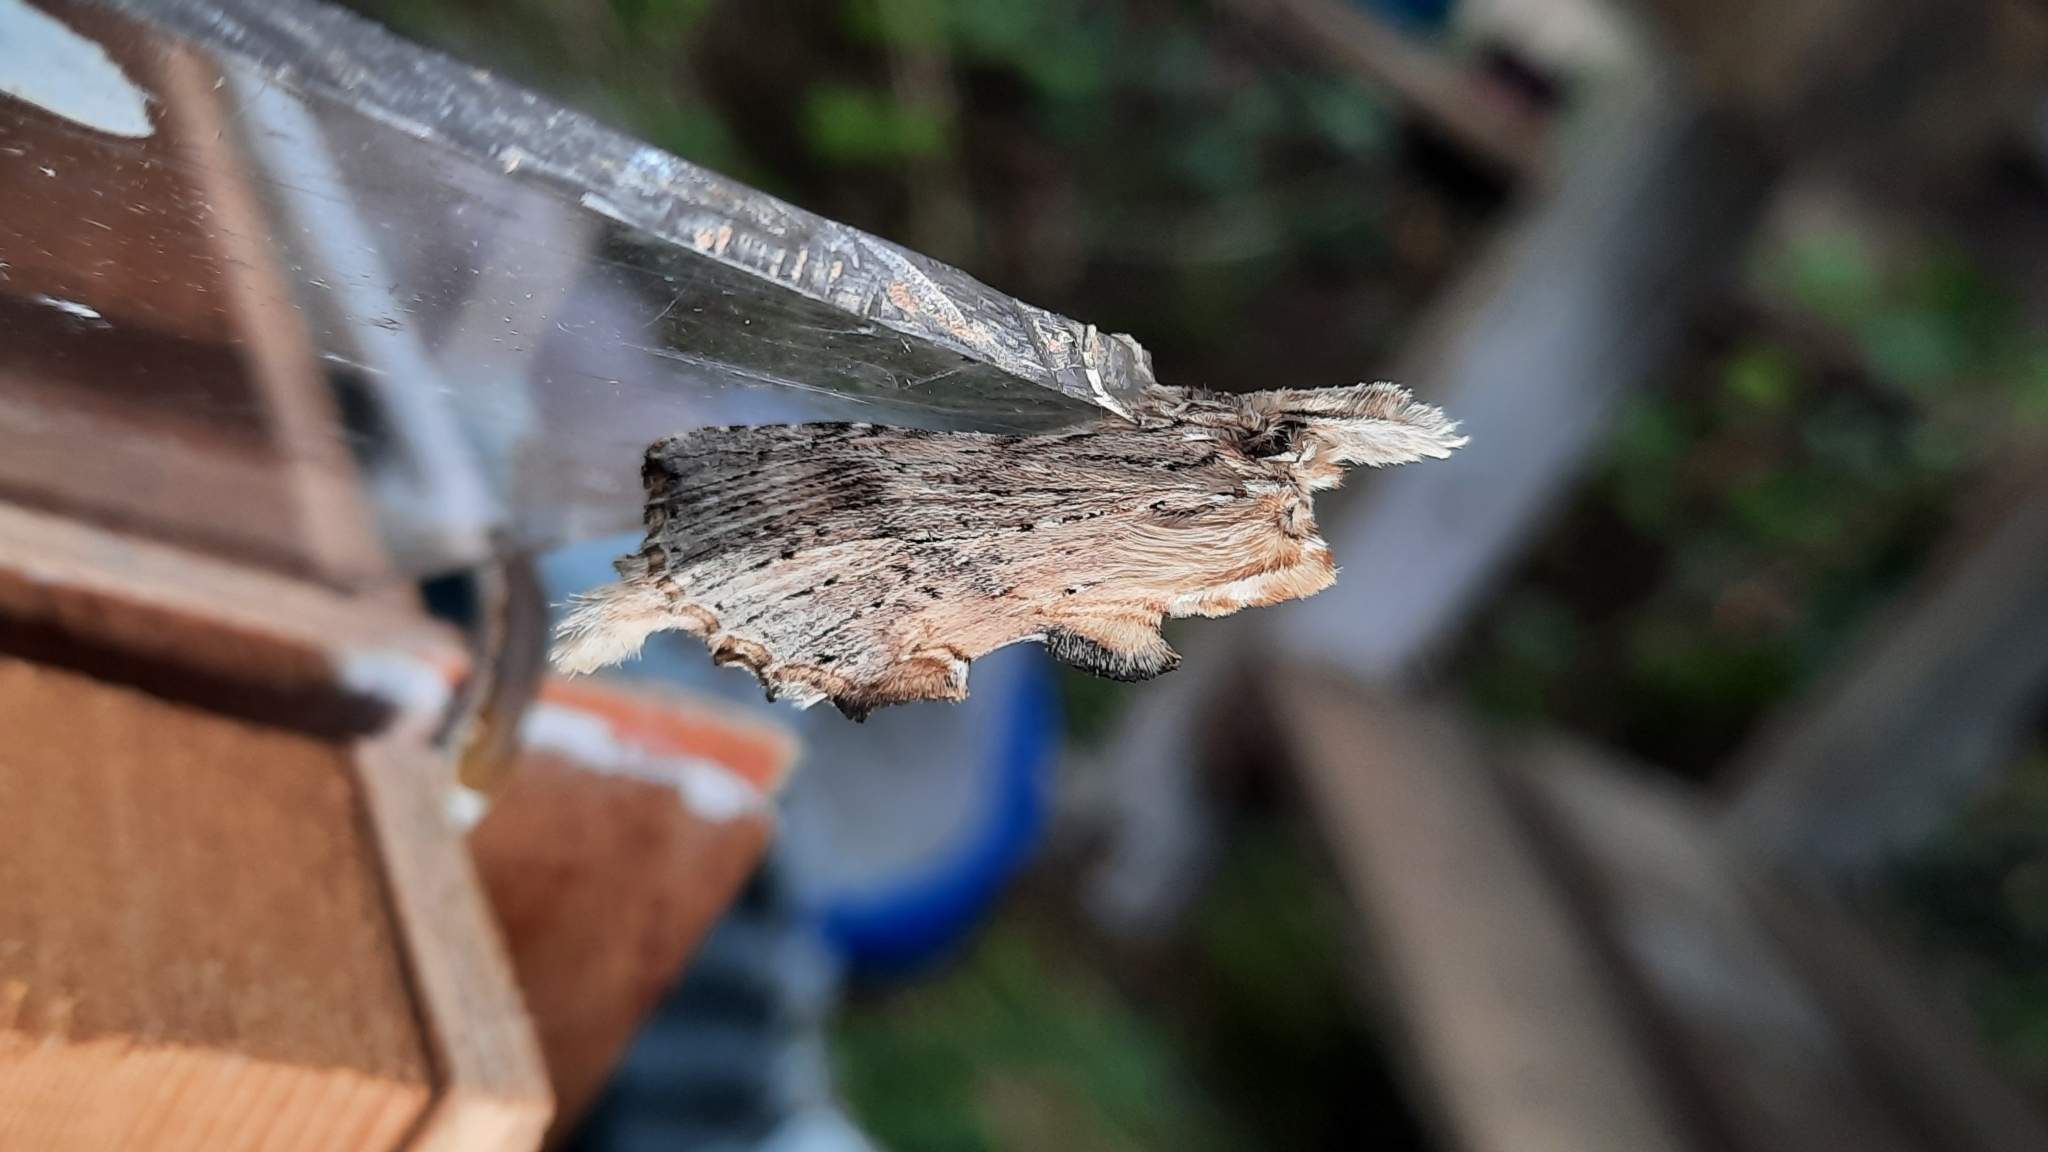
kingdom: Animalia
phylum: Arthropoda
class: Insecta
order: Lepidoptera
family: Notodontidae
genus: Pterostoma
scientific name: Pterostoma palpina
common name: Pale prominent
